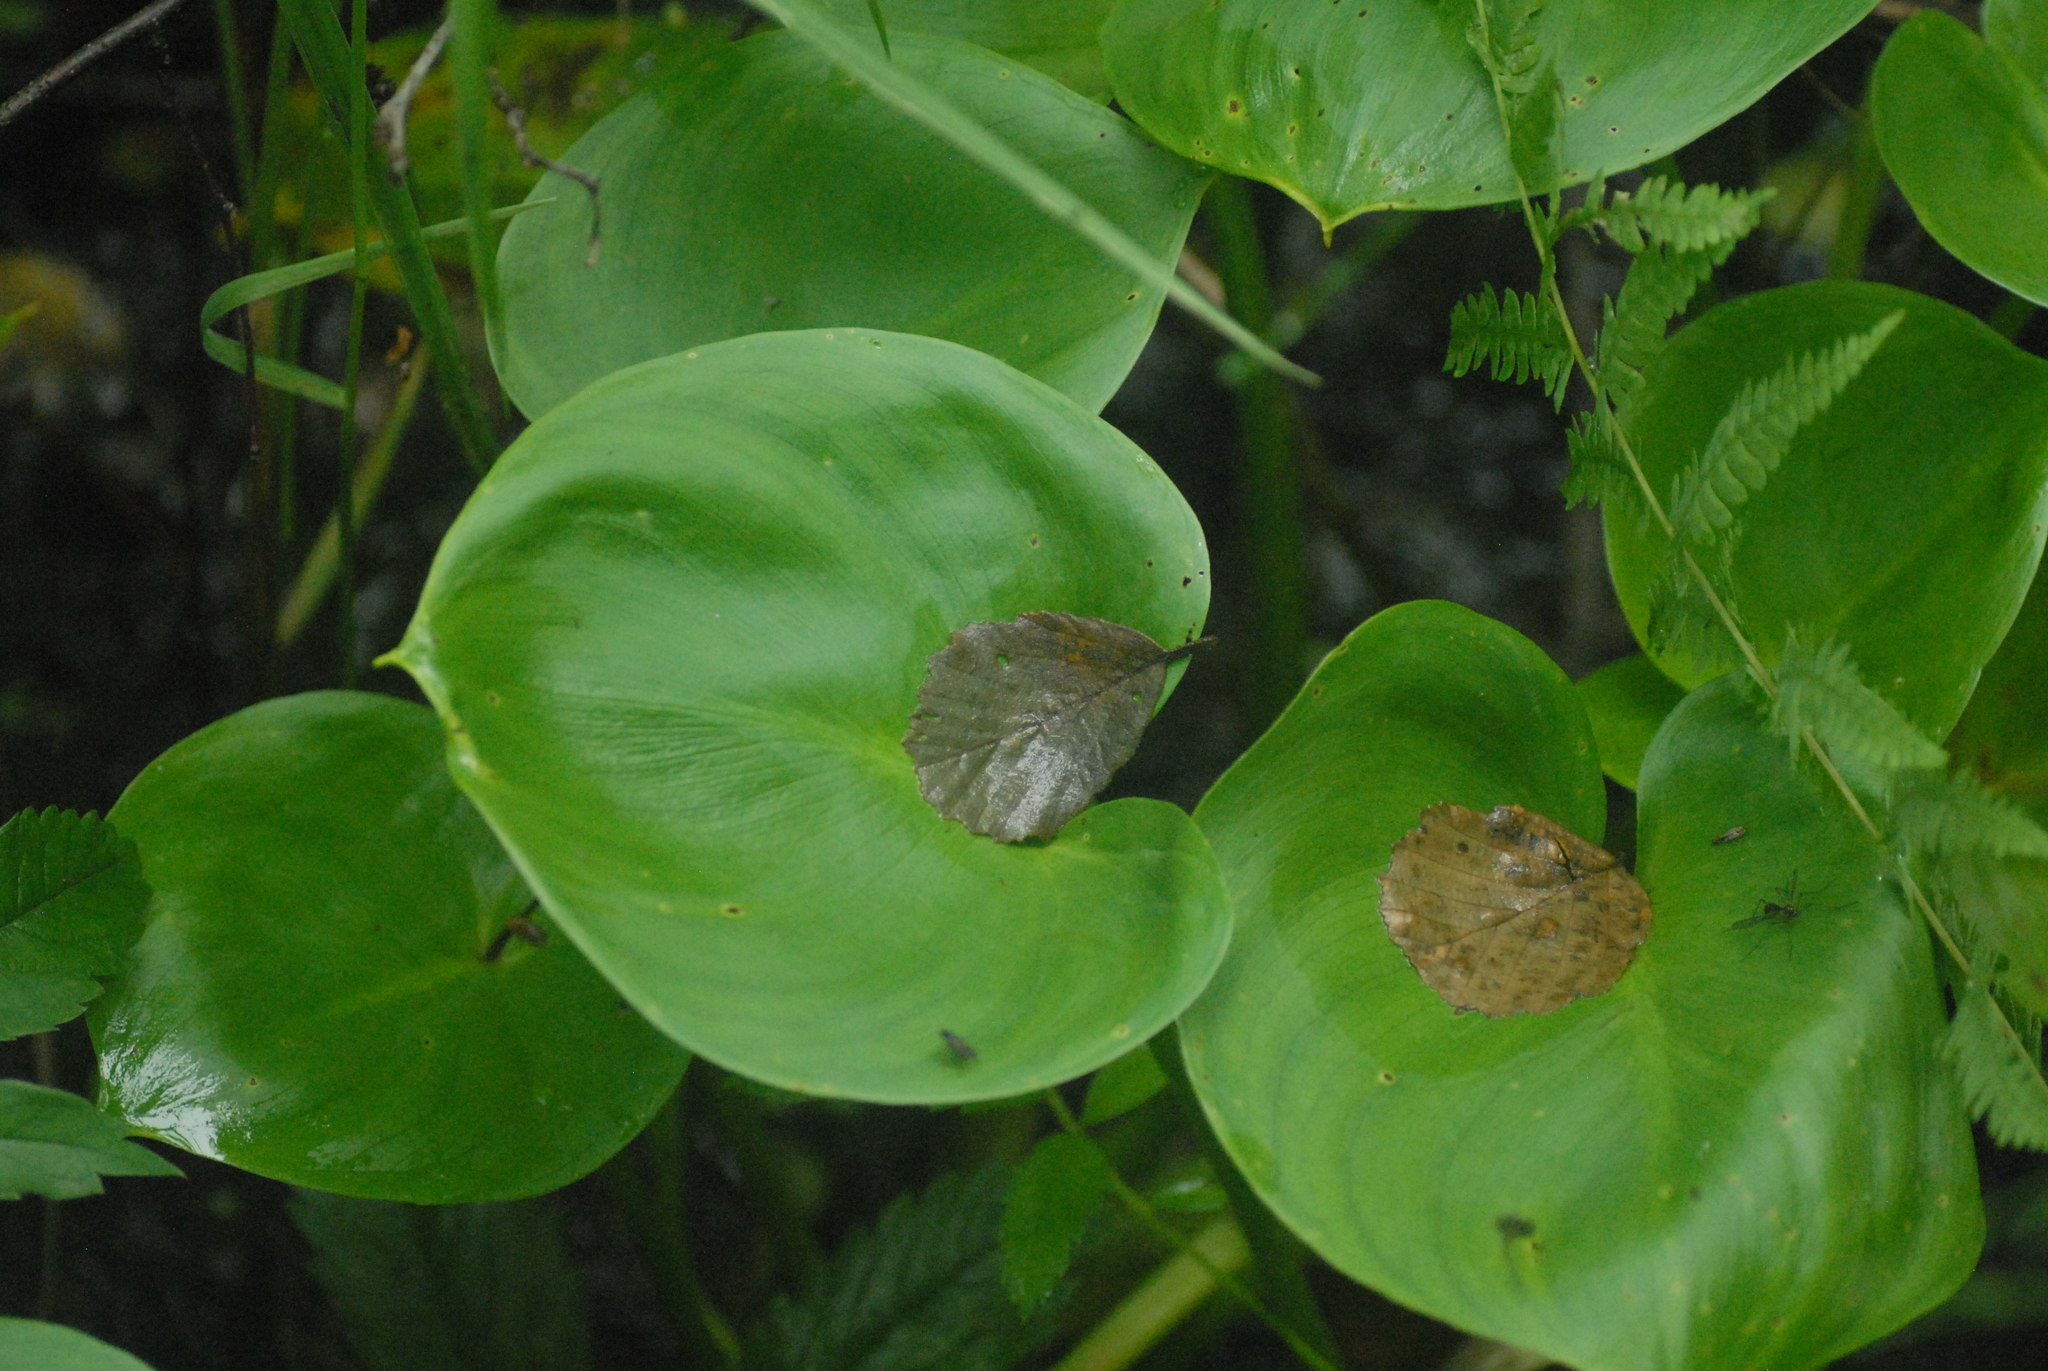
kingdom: Plantae
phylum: Tracheophyta
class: Liliopsida
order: Alismatales
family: Araceae
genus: Calla
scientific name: Calla palustris
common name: Bog arum
